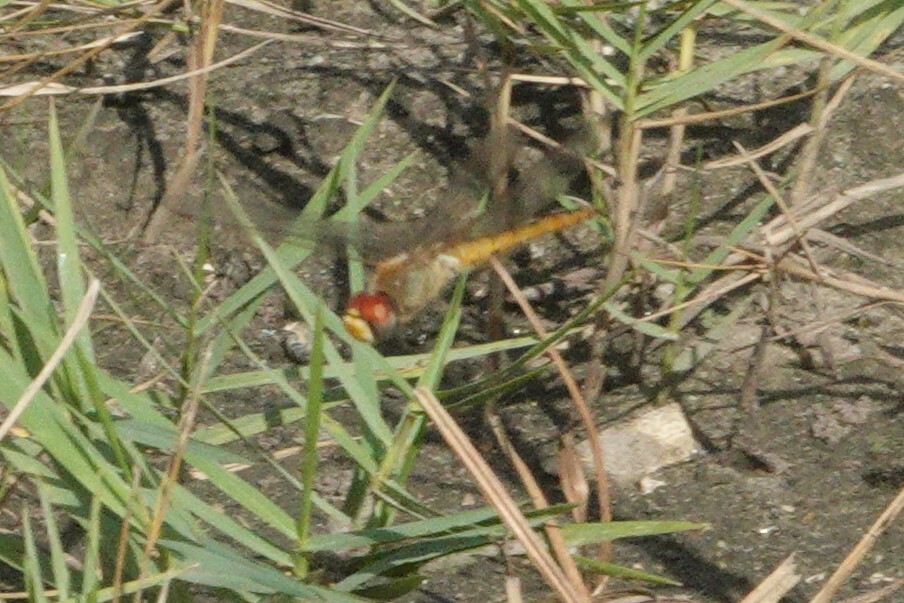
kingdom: Animalia
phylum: Arthropoda
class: Insecta
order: Odonata
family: Libellulidae
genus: Pantala
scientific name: Pantala flavescens
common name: Wandering glider
